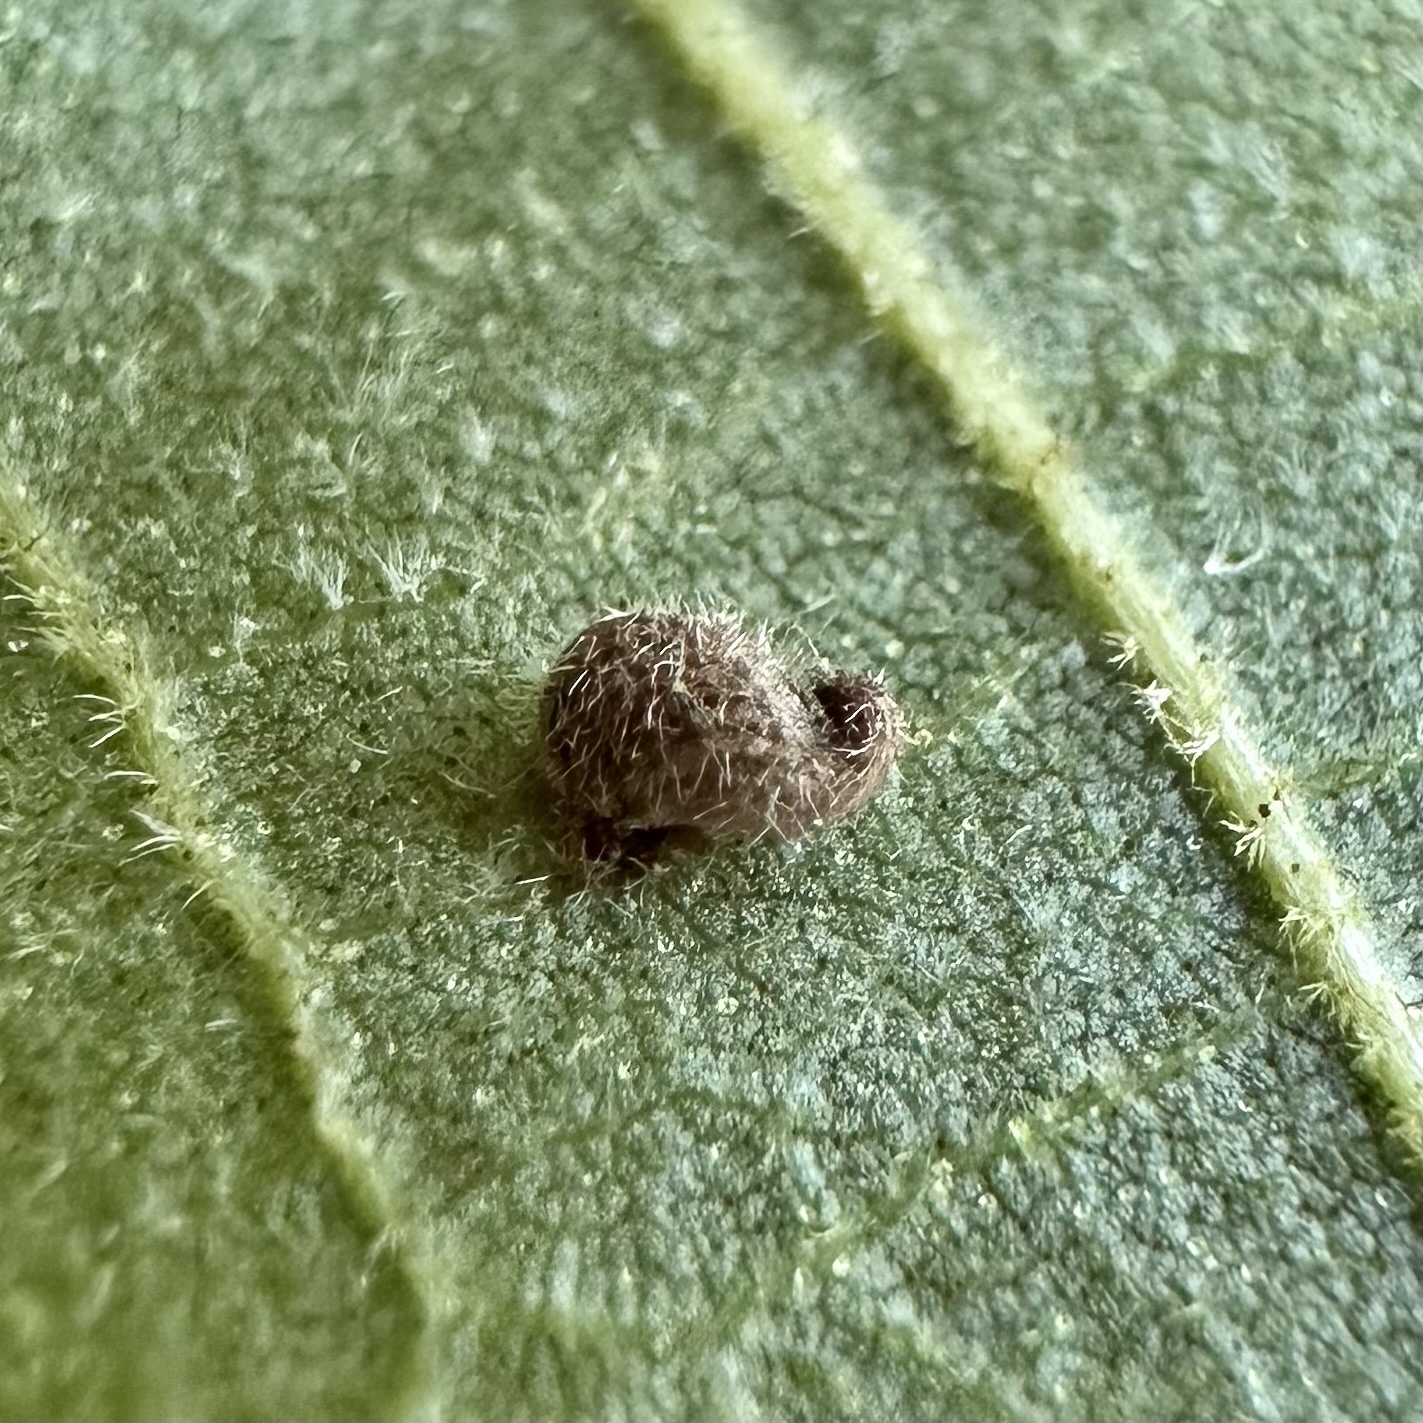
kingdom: Animalia
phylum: Arthropoda
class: Insecta
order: Diptera
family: Cecidomyiidae
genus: Caryomyia
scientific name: Caryomyia eumaris
